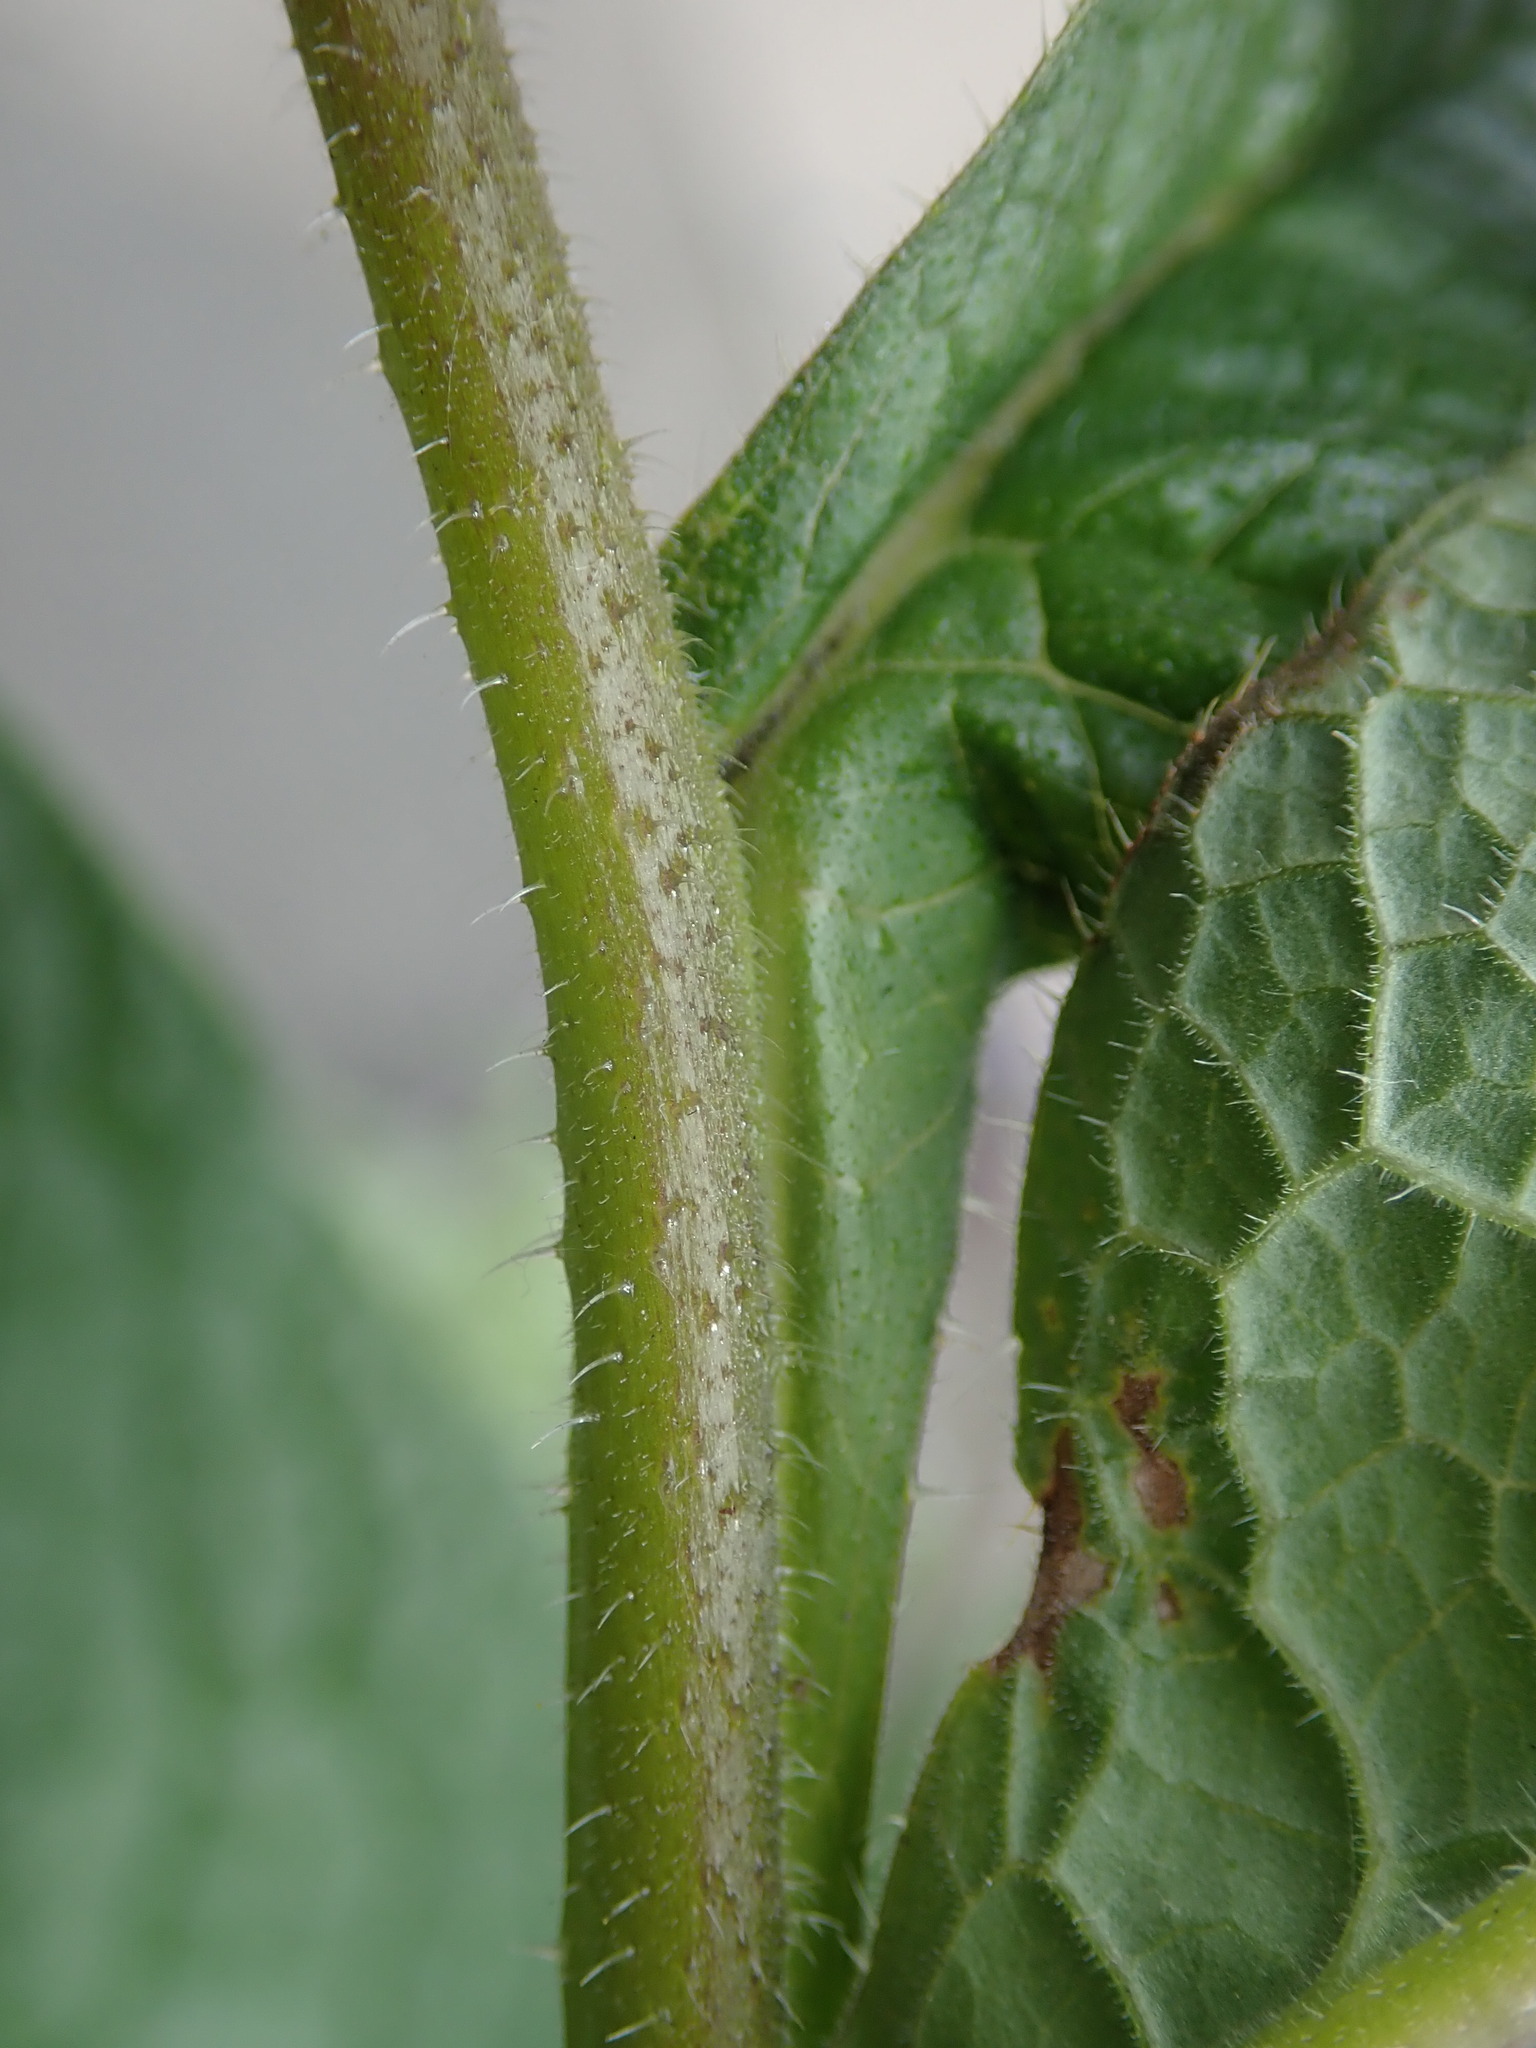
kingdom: Plantae
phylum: Tracheophyta
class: Magnoliopsida
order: Boraginales
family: Boraginaceae
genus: Symphytum
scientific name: Symphytum uplandicum
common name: Russian comfrey
